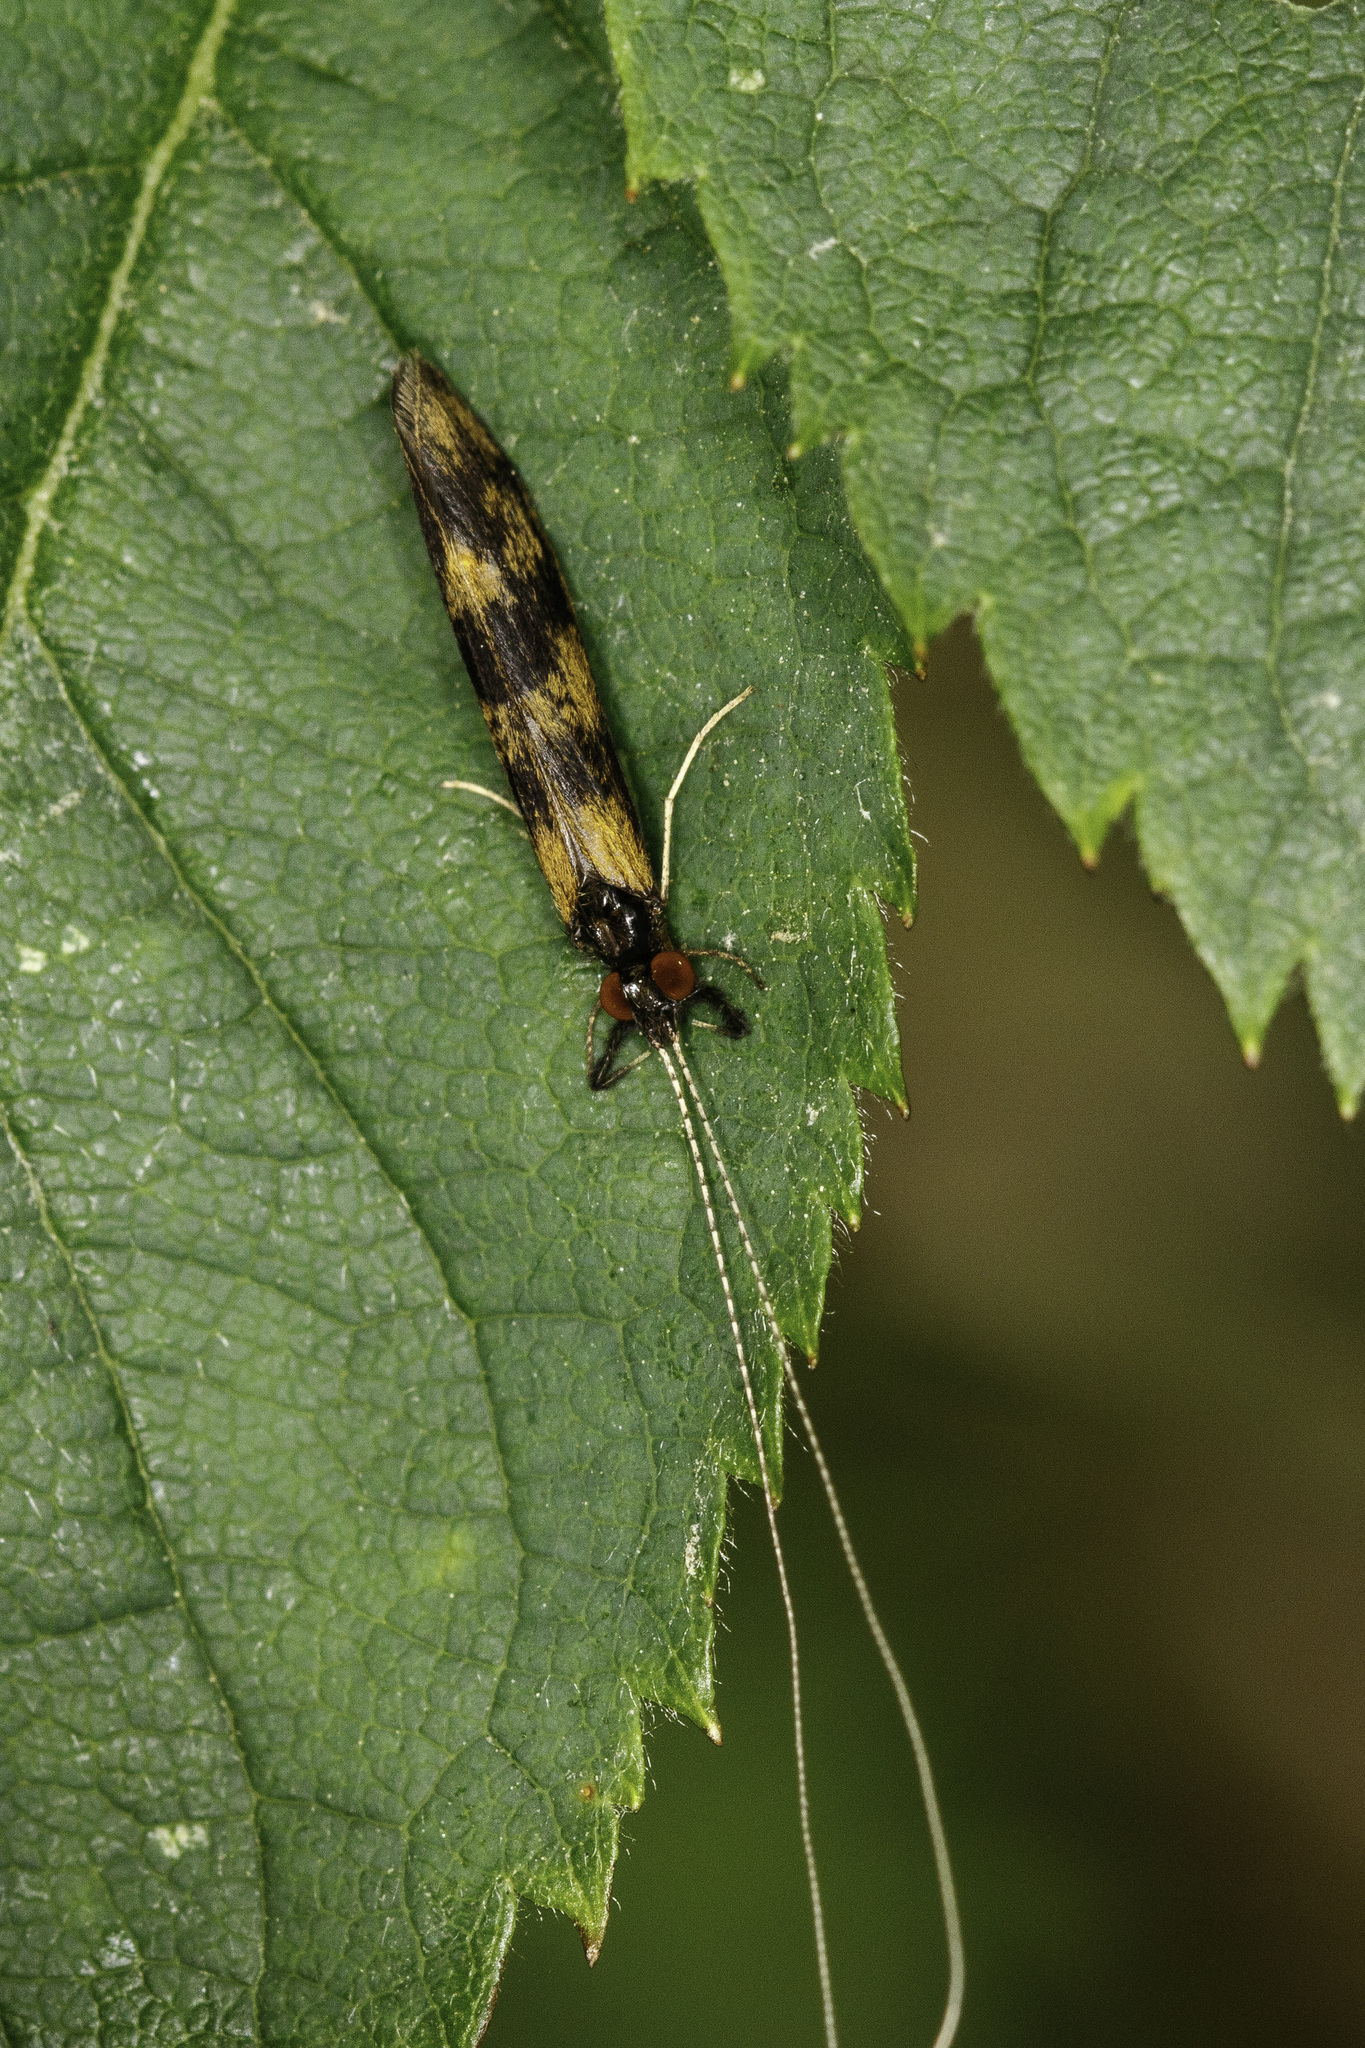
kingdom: Animalia
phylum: Arthropoda
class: Insecta
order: Trichoptera
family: Leptoceridae
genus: Mystacides
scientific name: Mystacides longicornis
